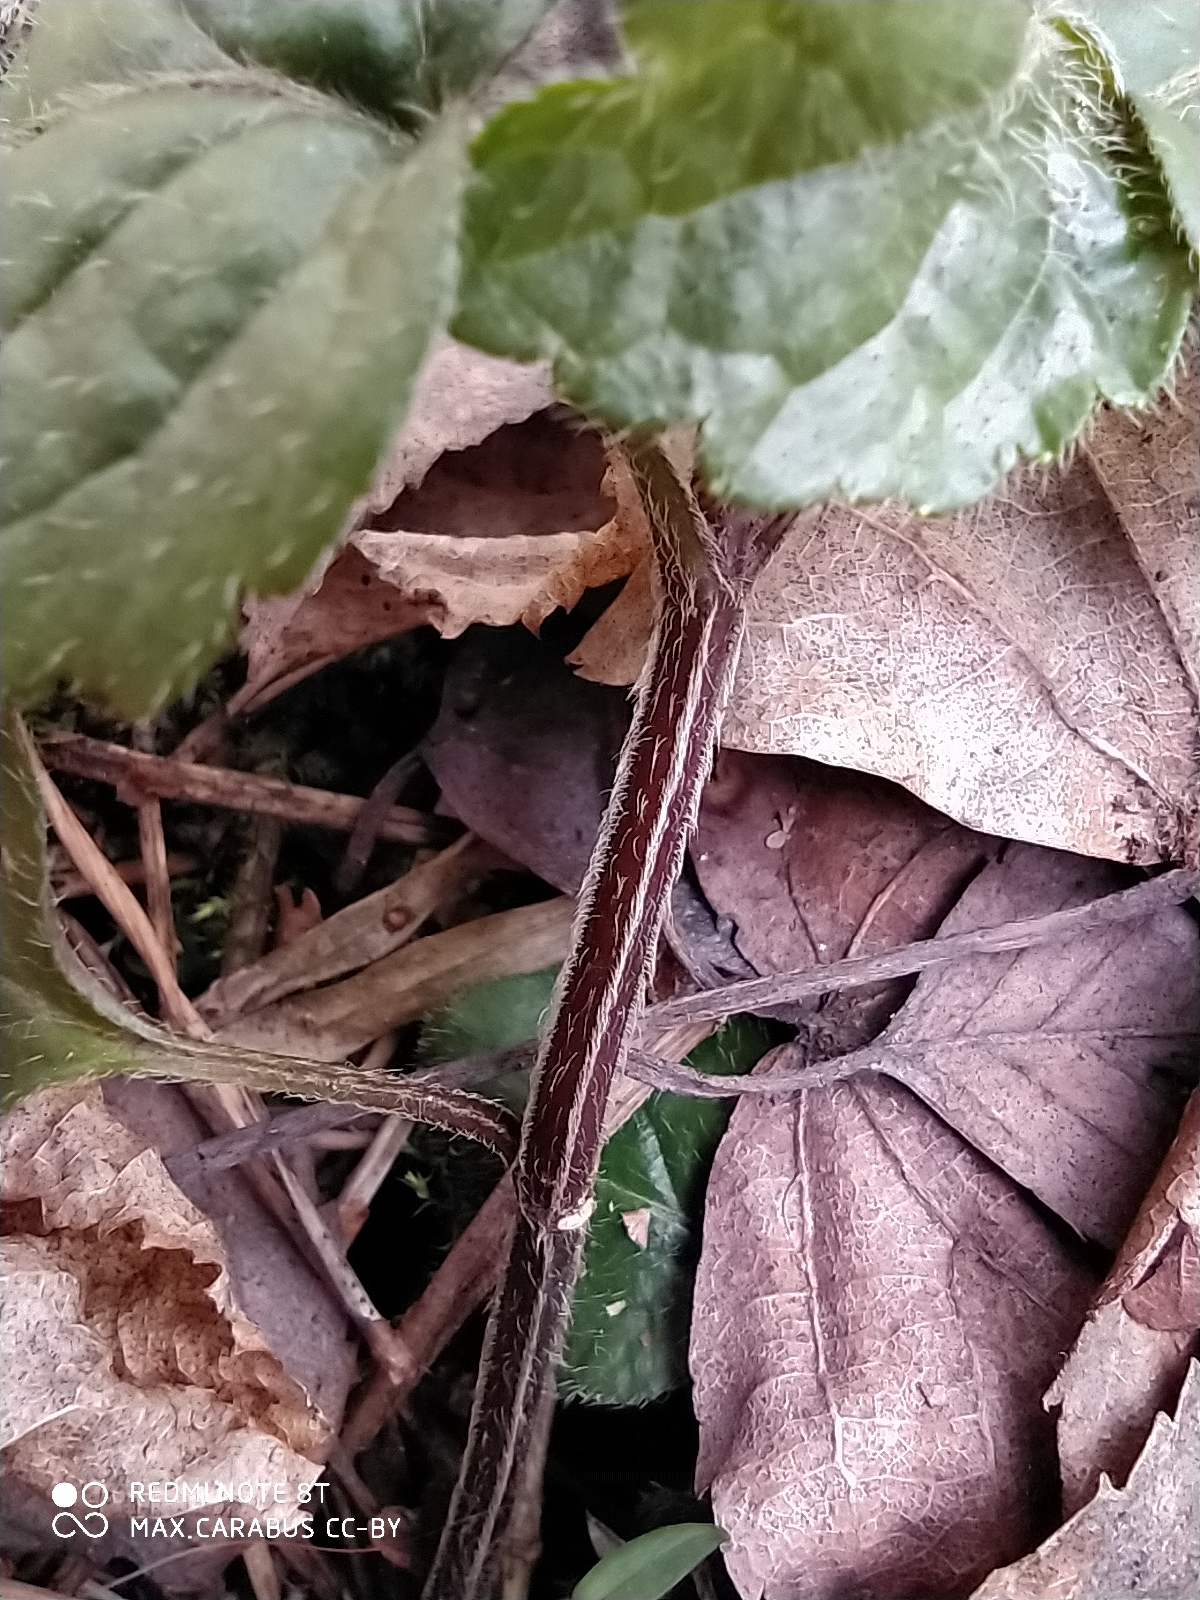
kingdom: Plantae
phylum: Tracheophyta
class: Magnoliopsida
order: Lamiales
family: Lamiaceae
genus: Lamium
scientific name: Lamium galeobdolon
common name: Yellow archangel
